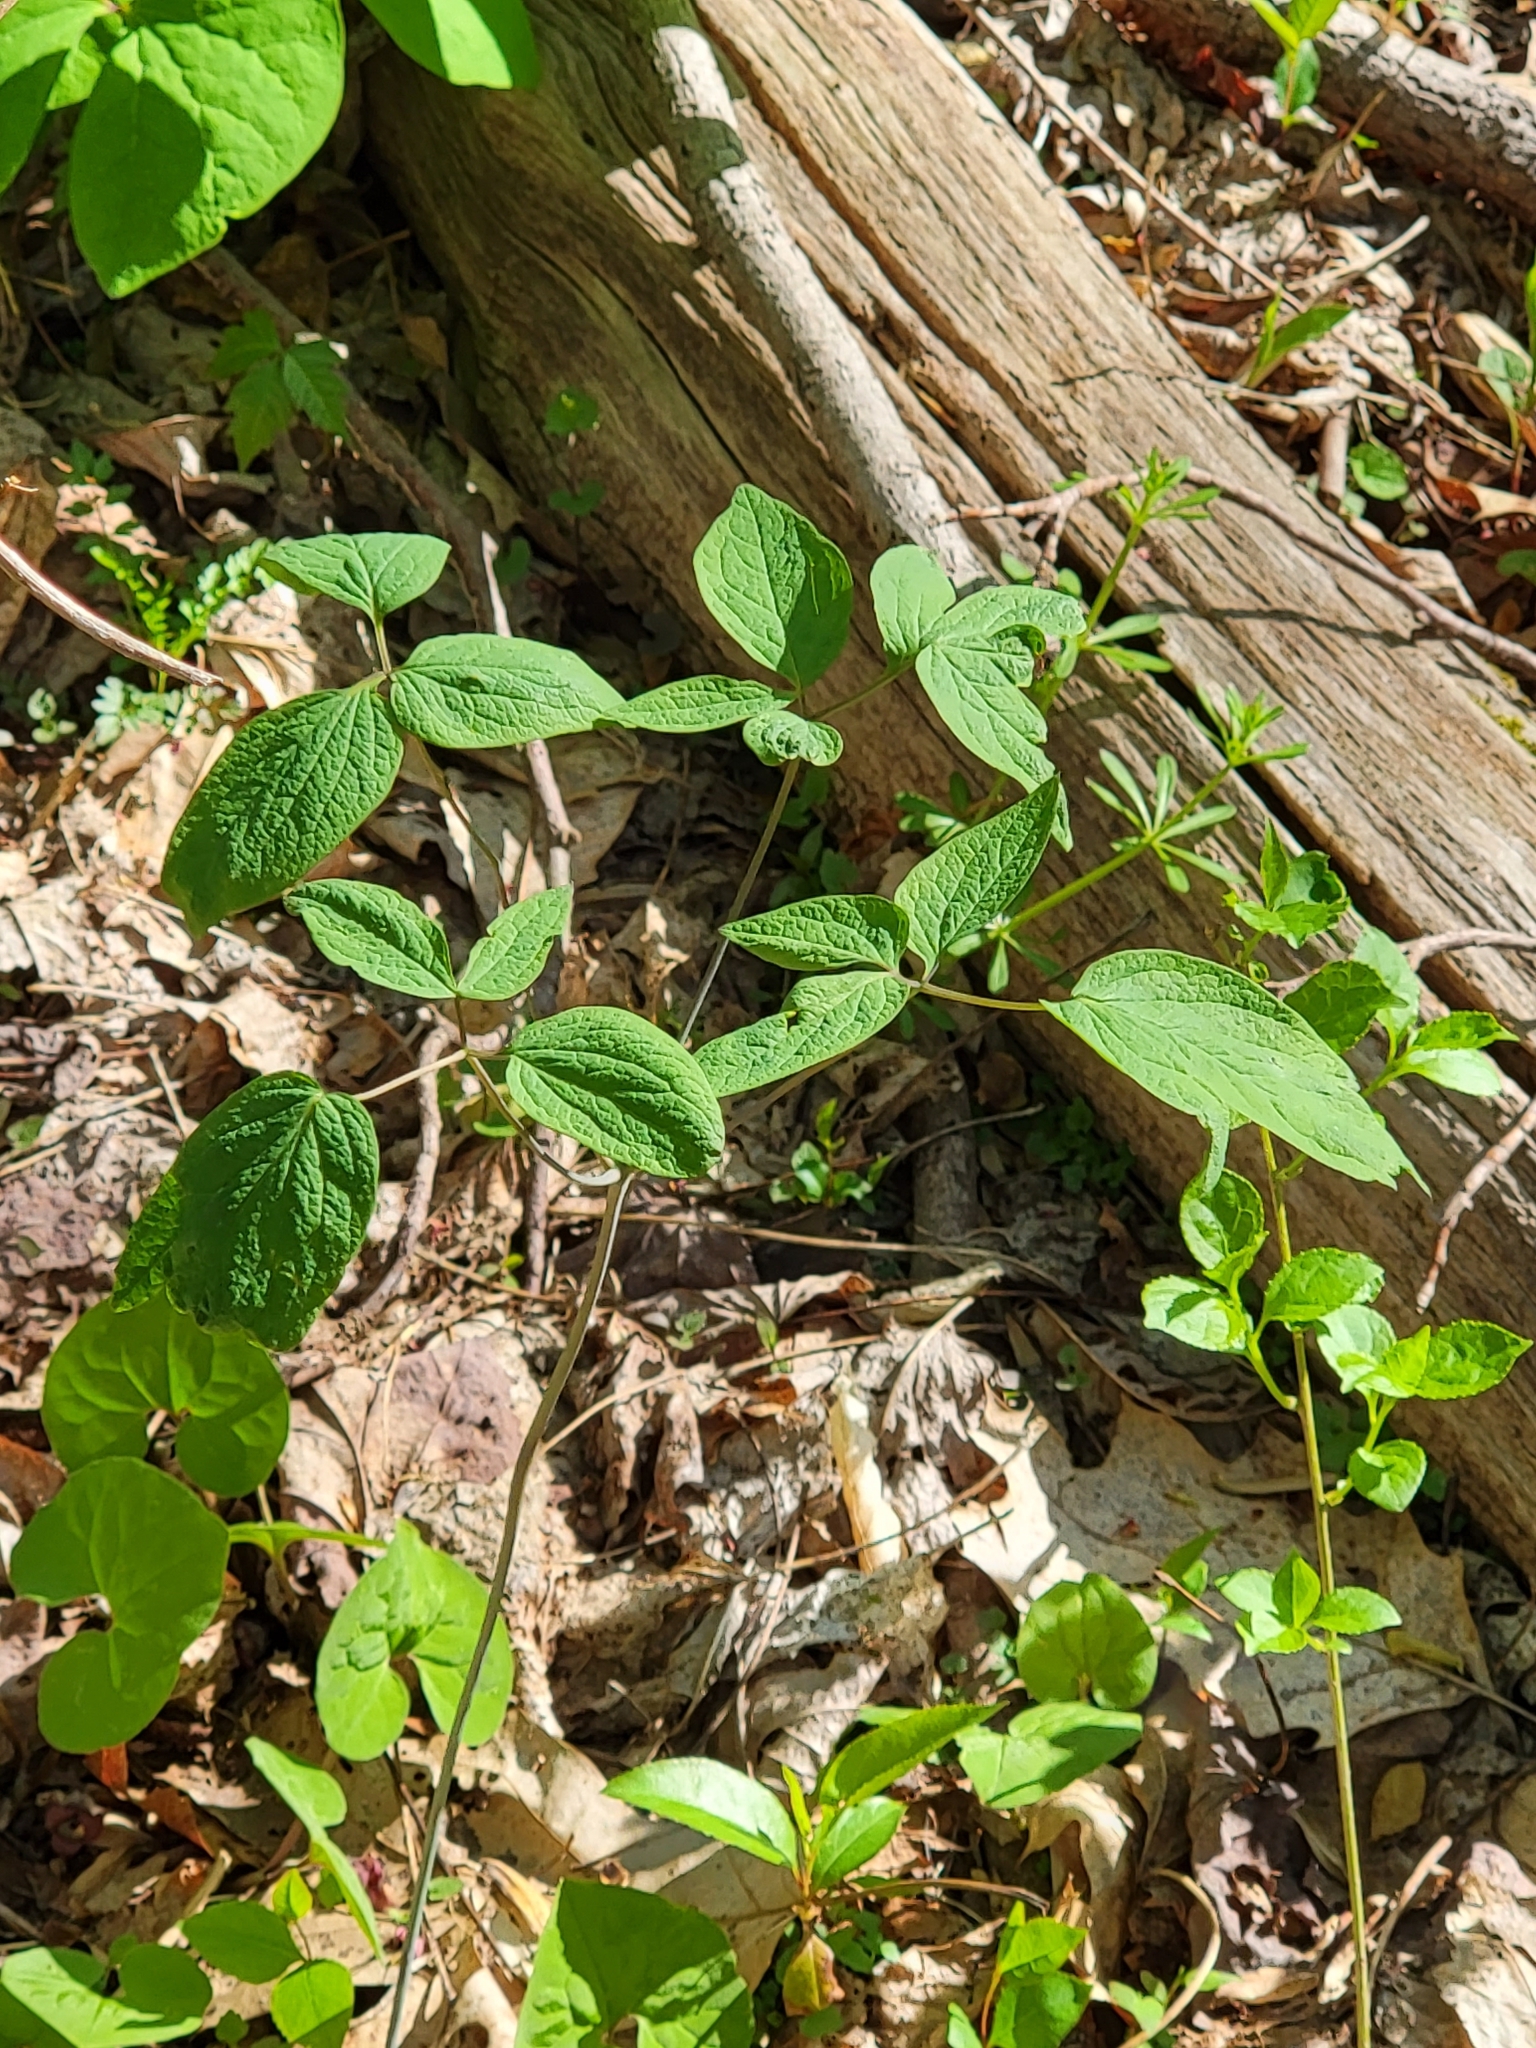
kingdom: Plantae
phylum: Tracheophyta
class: Magnoliopsida
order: Ranunculales
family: Ranunculaceae
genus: Clematis
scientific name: Clematis viorna
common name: Leather-flower
